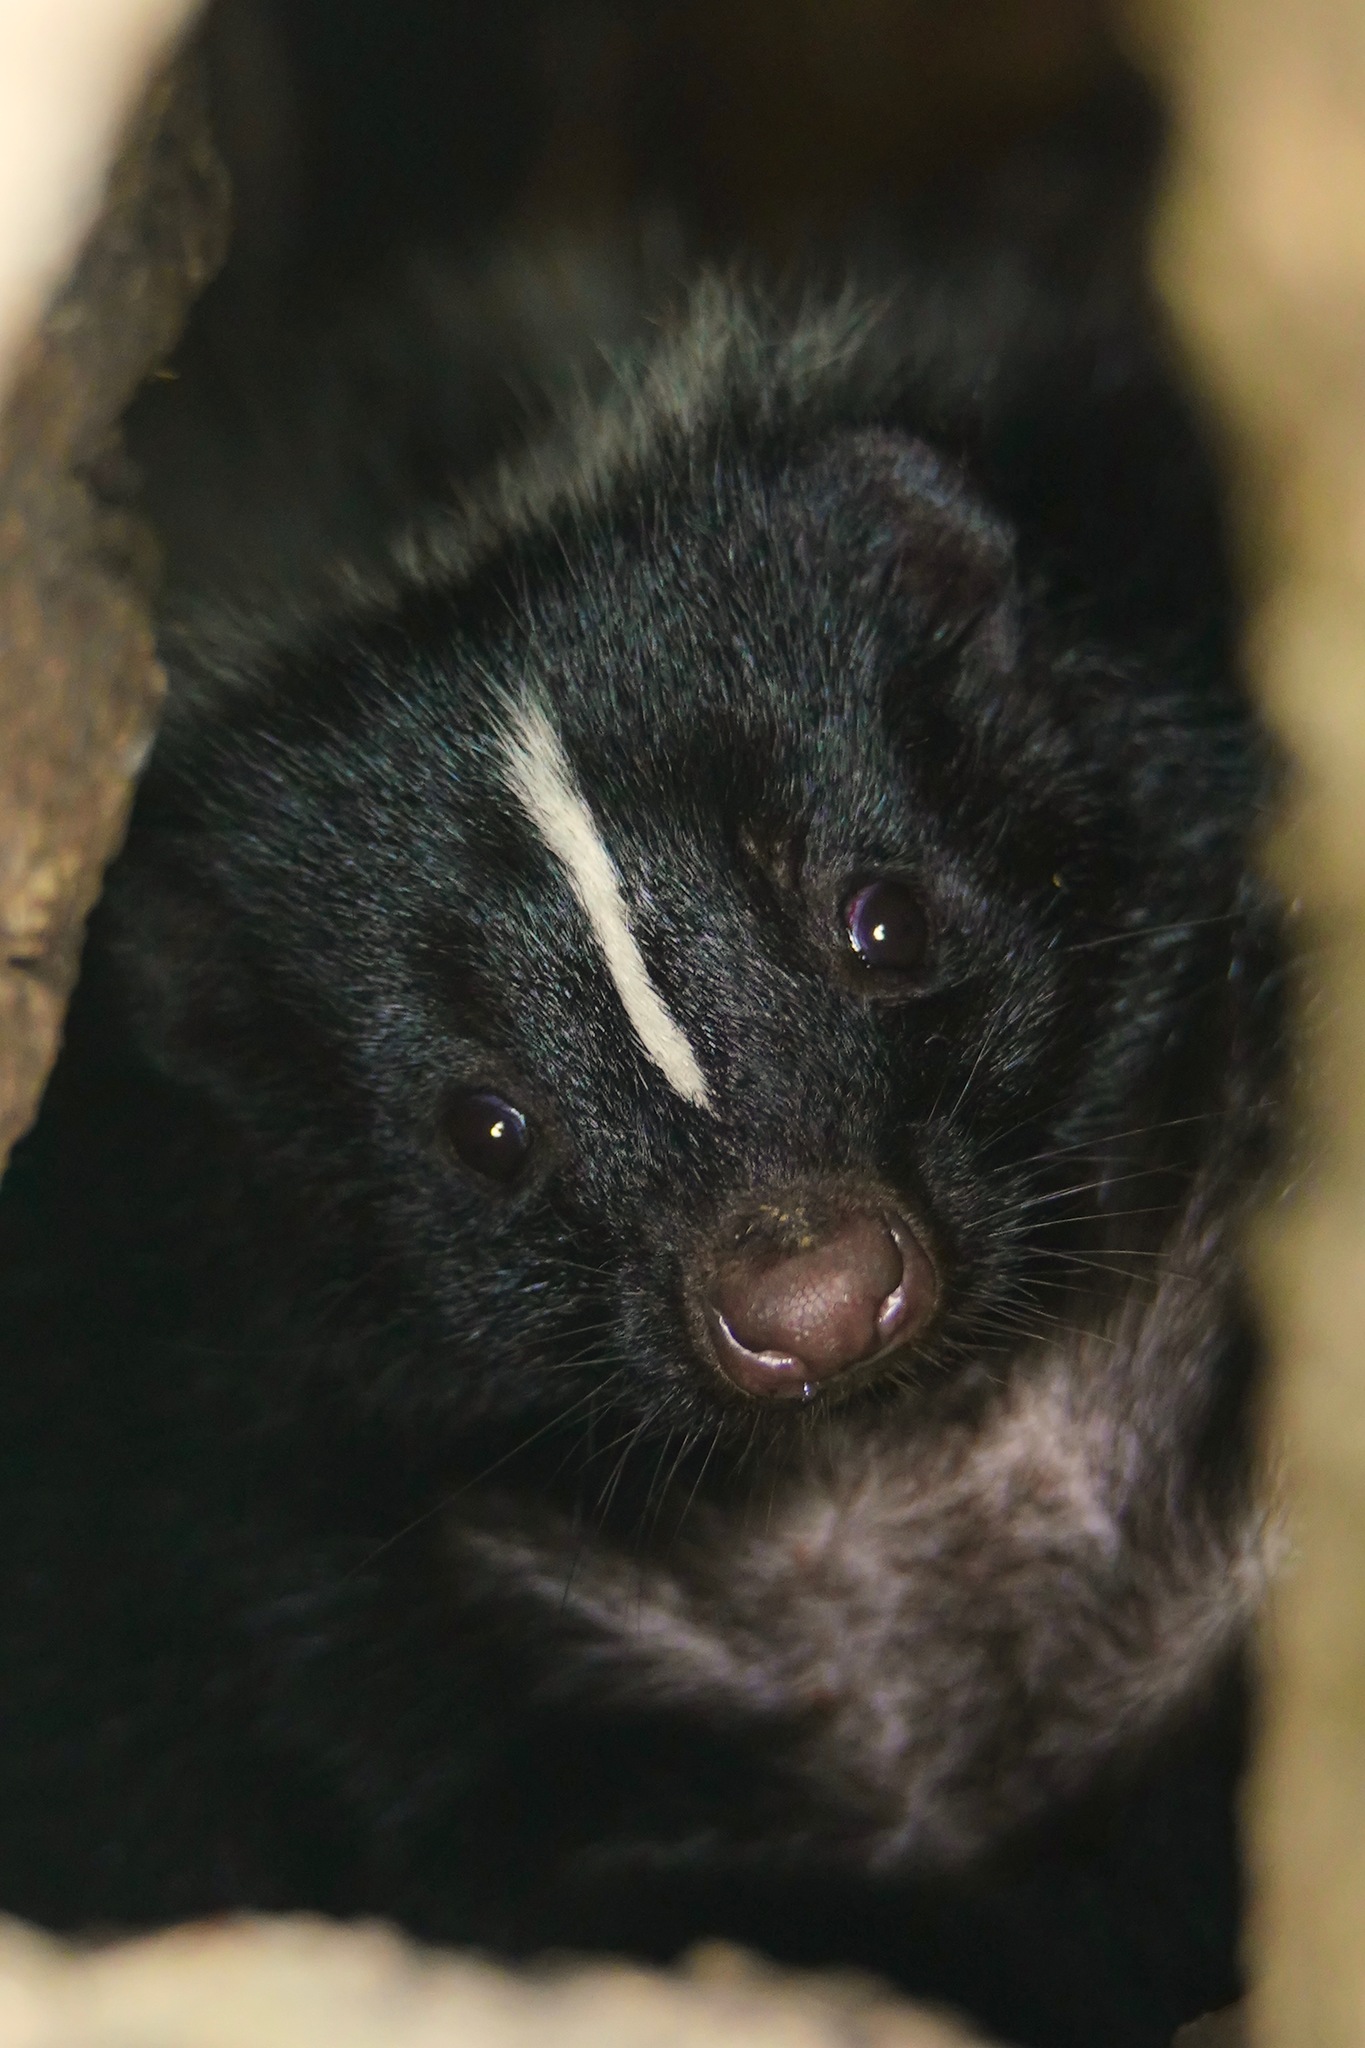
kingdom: Animalia
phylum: Chordata
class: Mammalia
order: Carnivora
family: Mephitidae
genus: Mephitis
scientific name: Mephitis mephitis
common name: Striped skunk
